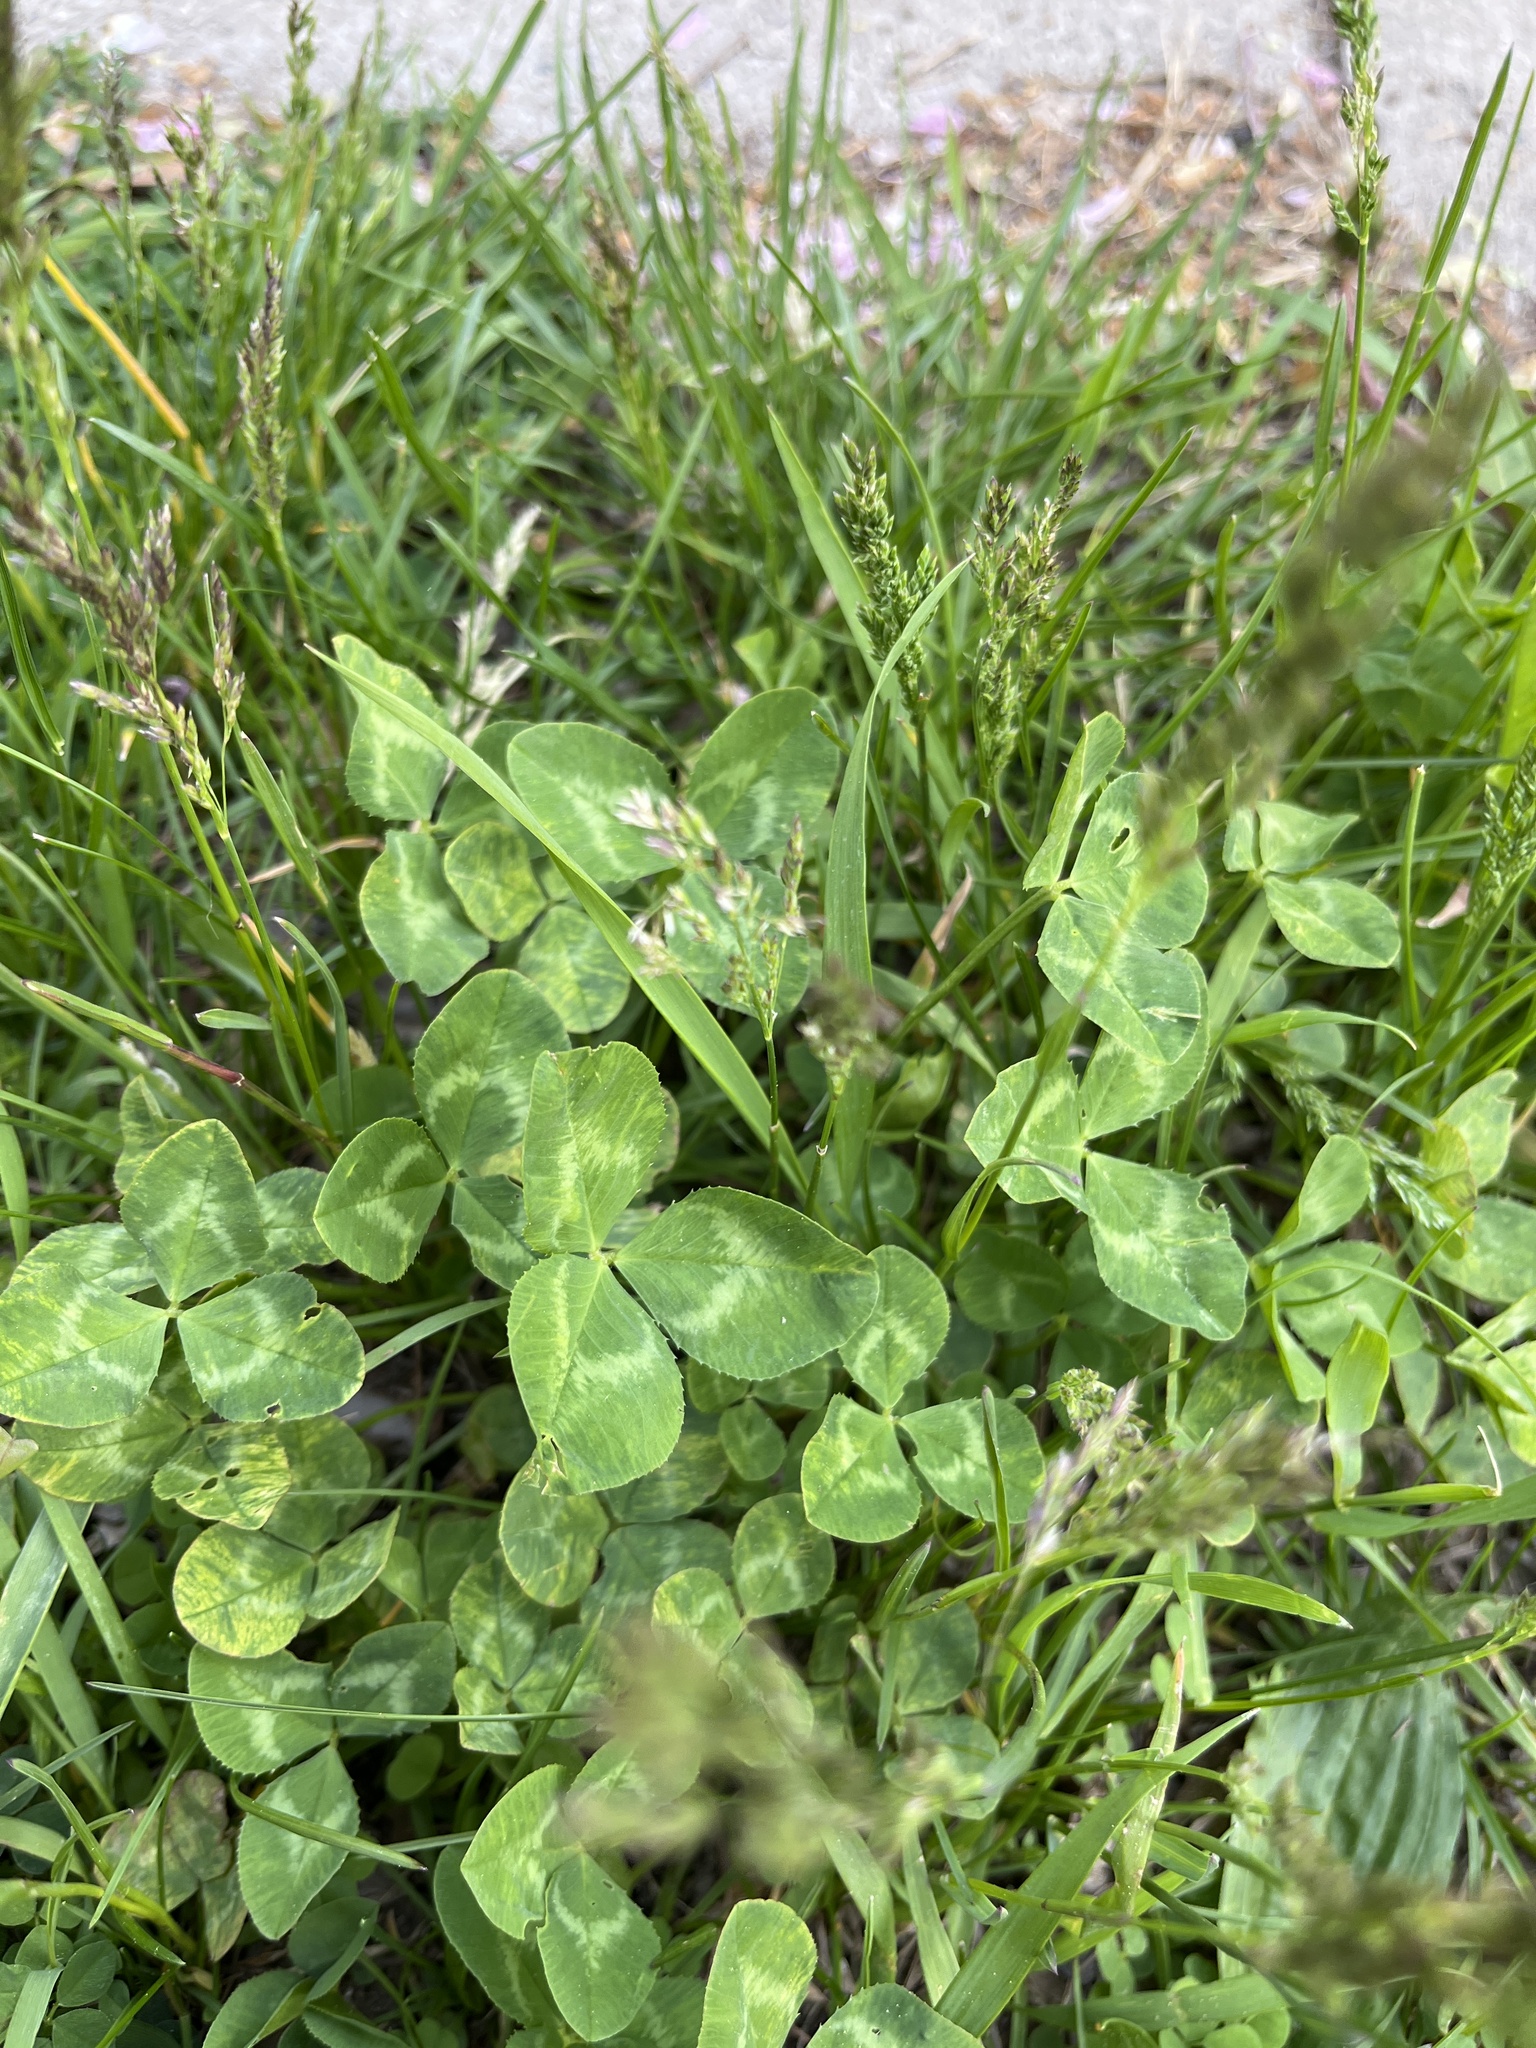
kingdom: Plantae
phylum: Tracheophyta
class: Magnoliopsida
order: Fabales
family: Fabaceae
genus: Trifolium
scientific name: Trifolium repens
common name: White clover
